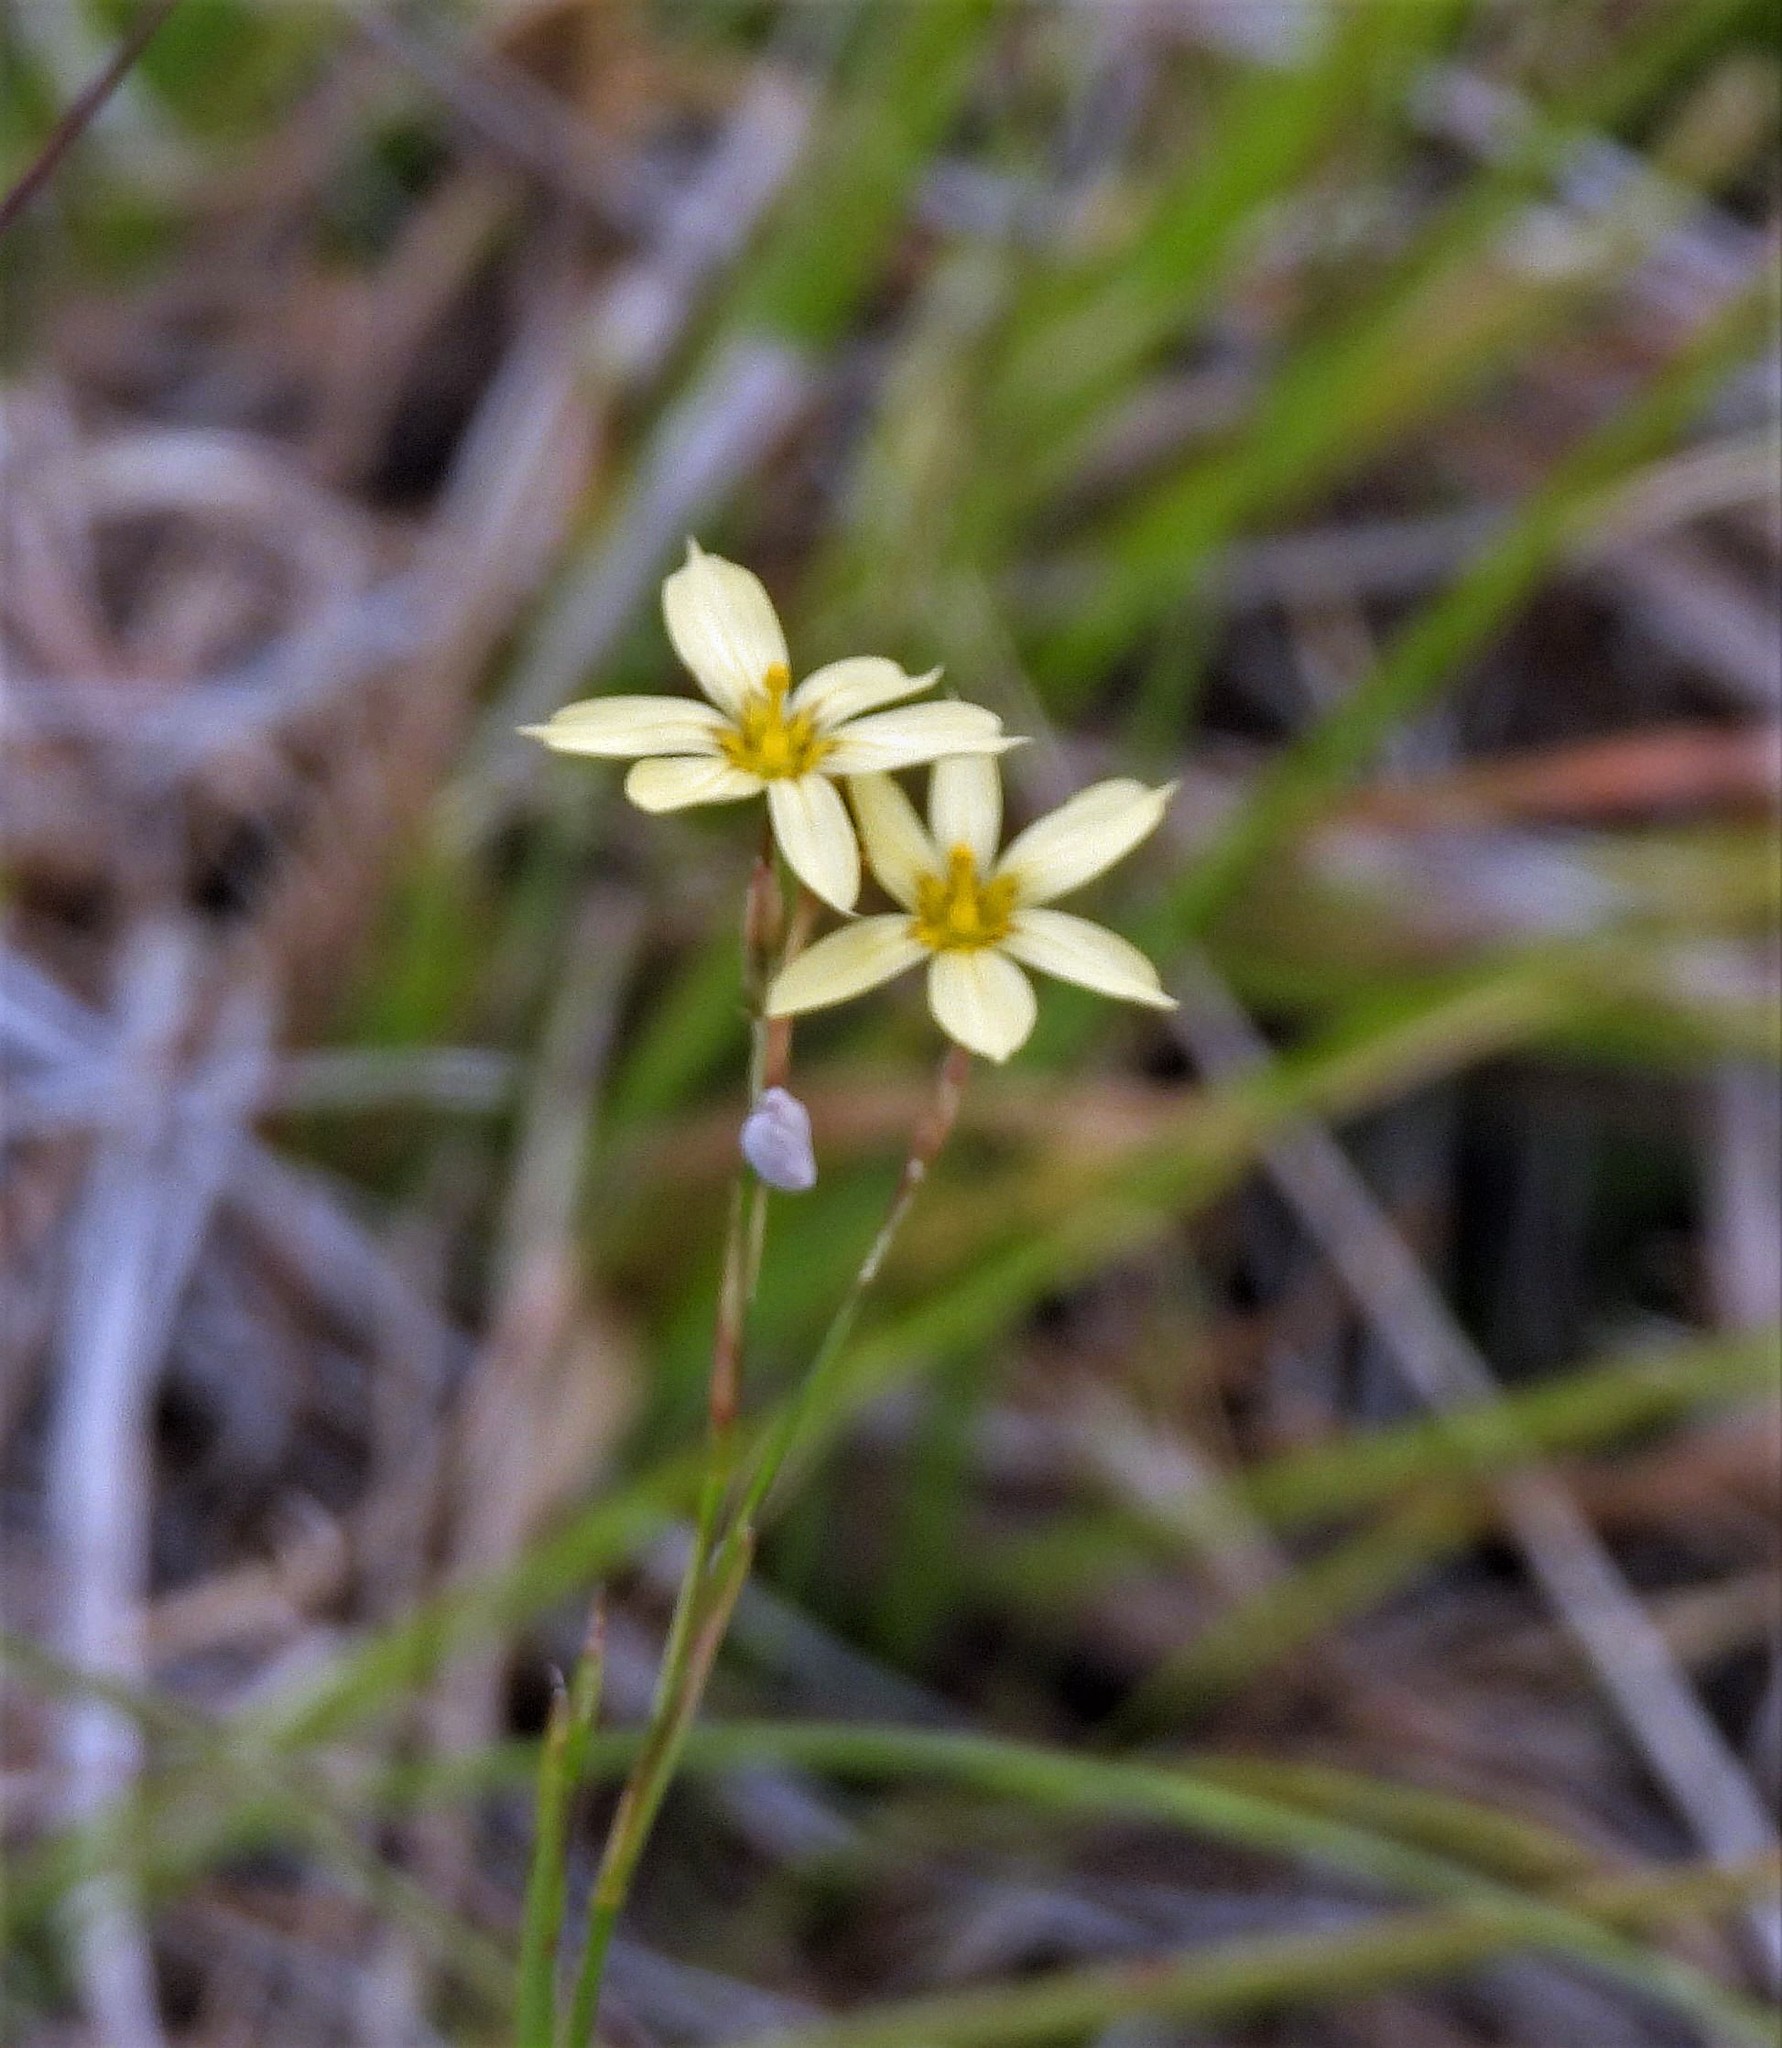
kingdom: Plantae
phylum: Tracheophyta
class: Liliopsida
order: Asparagales
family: Iridaceae
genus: Sisyrinchium
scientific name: Sisyrinchium pachyrhizum
